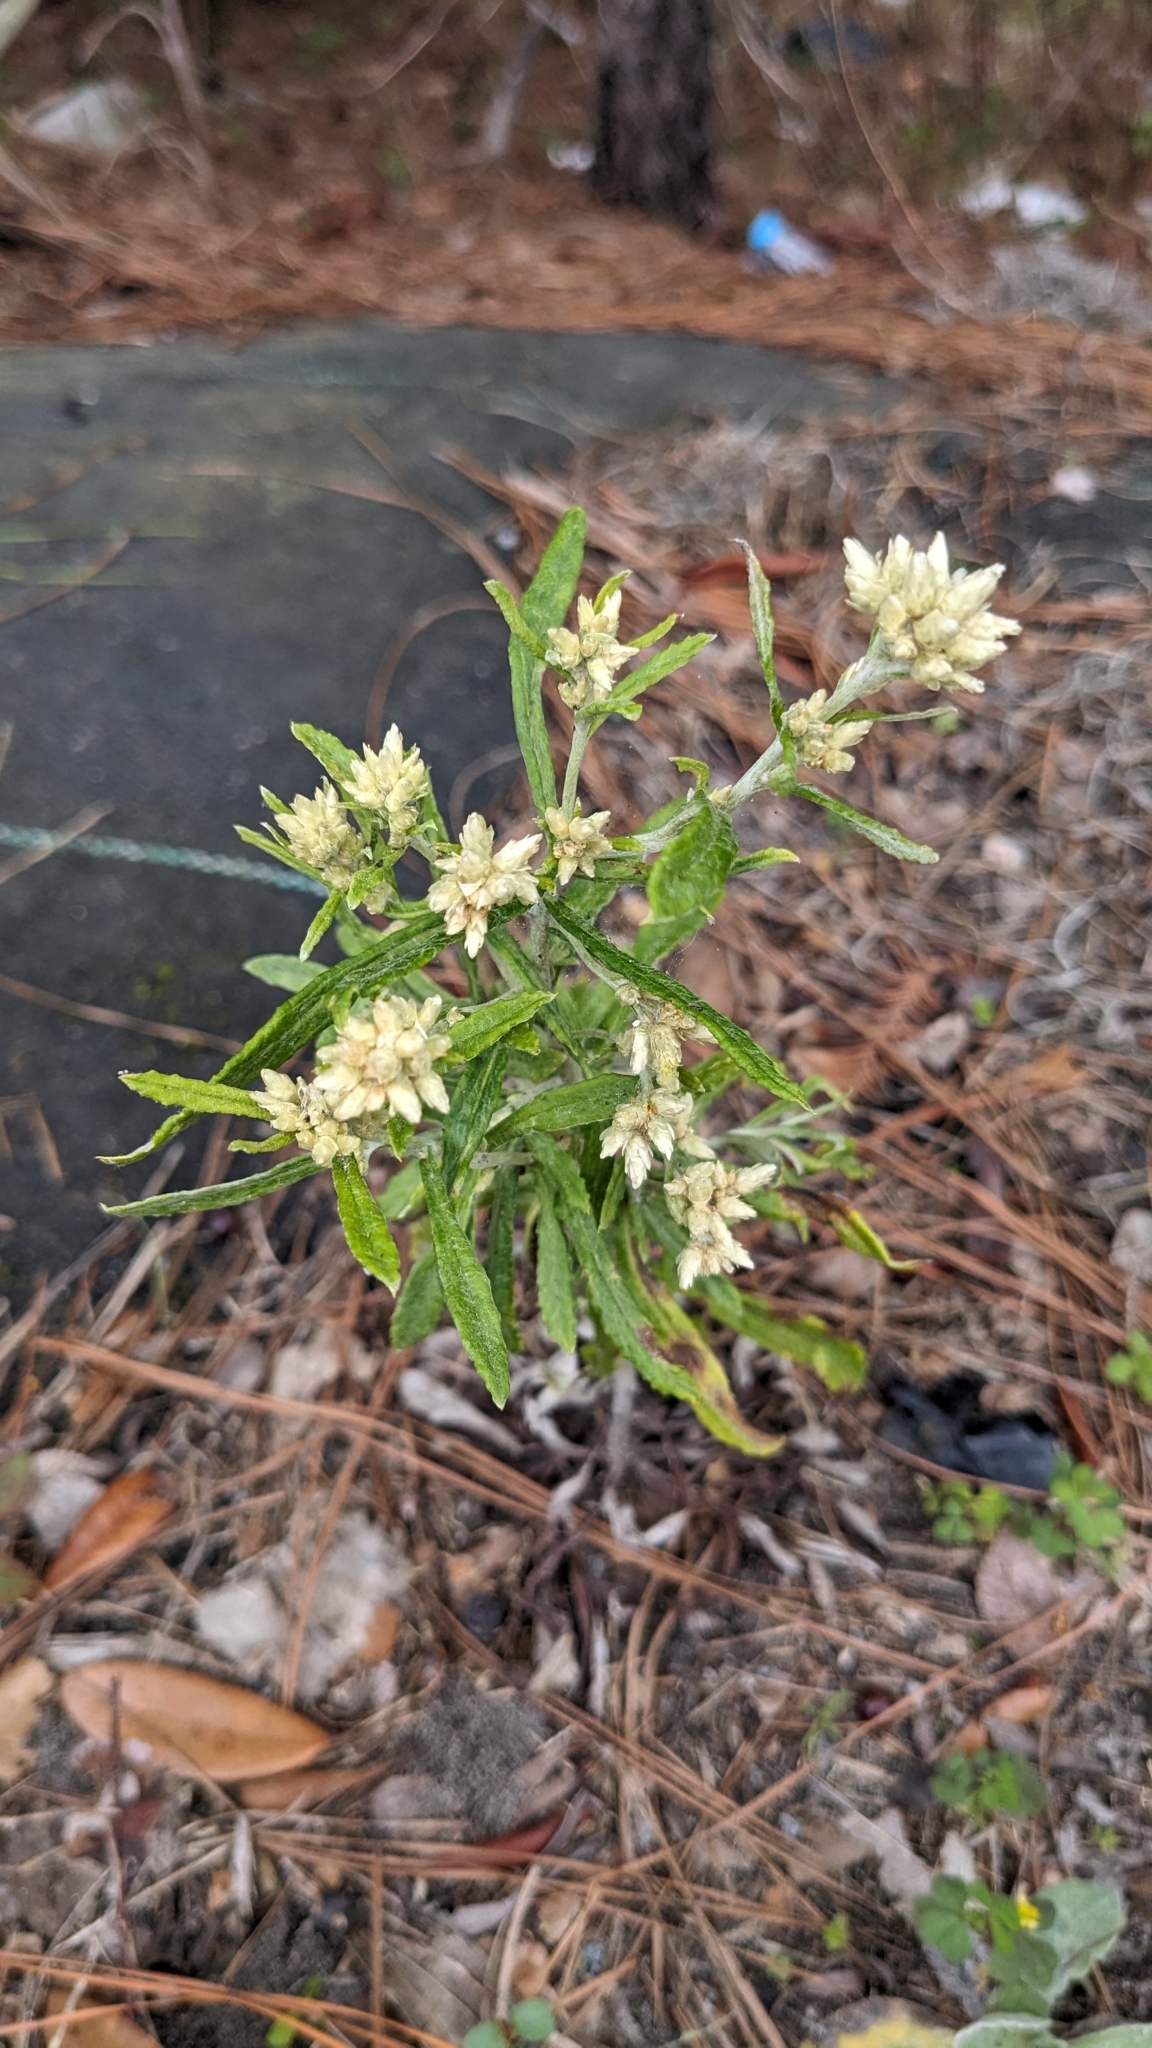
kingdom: Plantae
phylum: Tracheophyta
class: Magnoliopsida
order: Asterales
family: Asteraceae
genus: Pseudognaphalium
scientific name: Pseudognaphalium obtusifolium
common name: Eastern rabbit-tobacco
